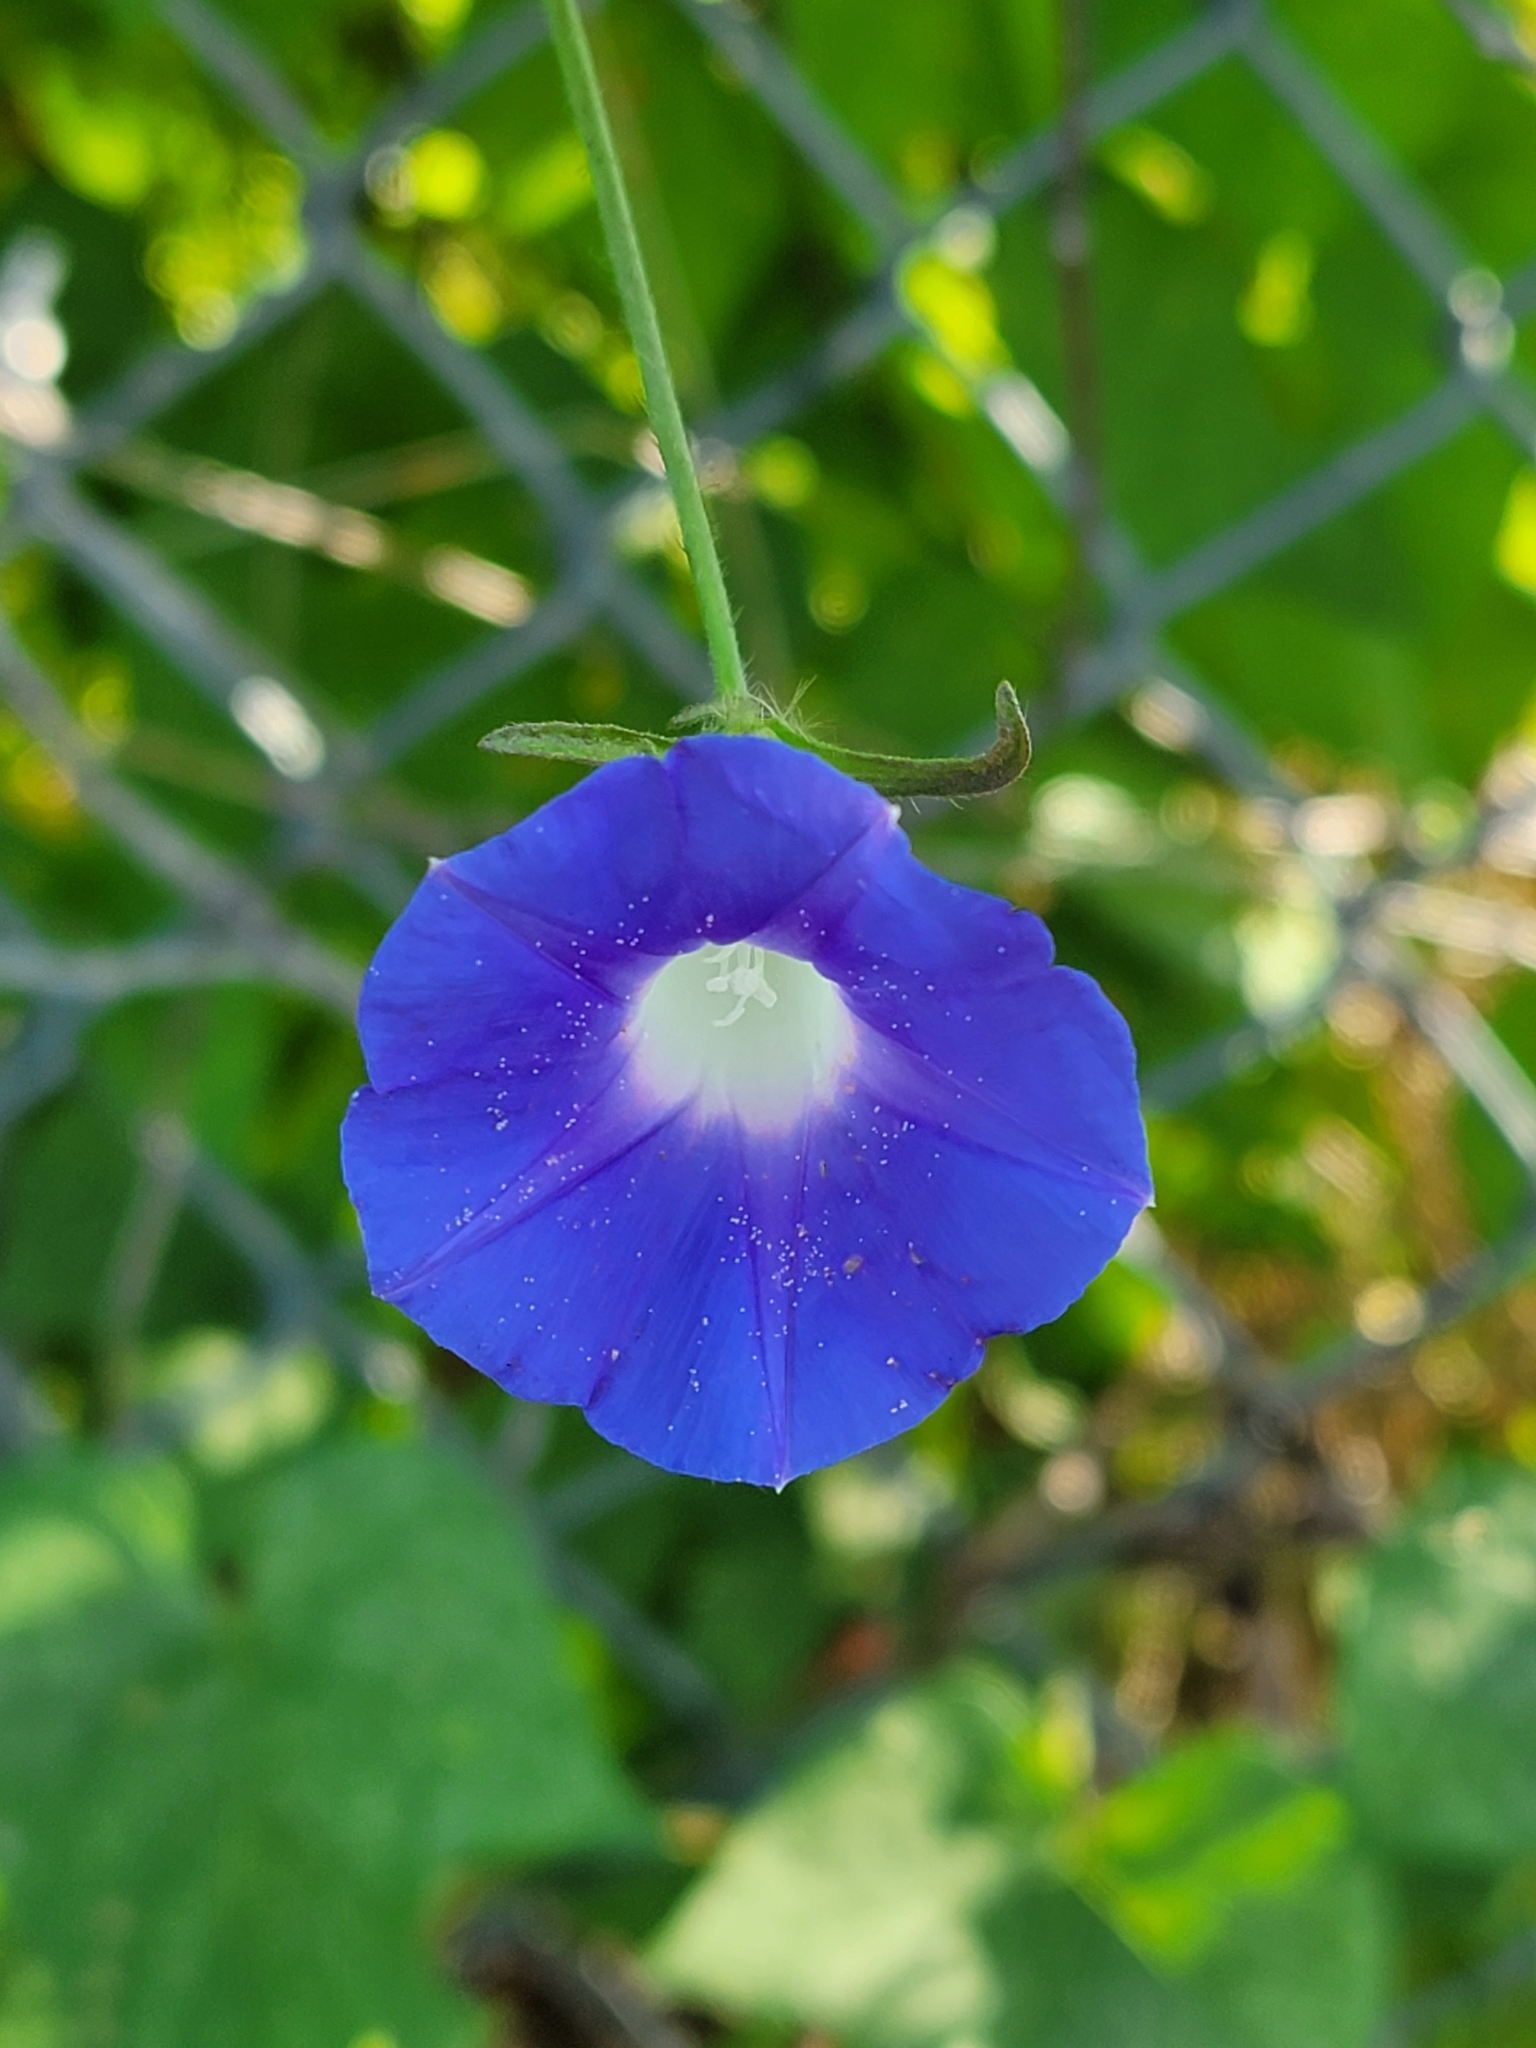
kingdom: Plantae
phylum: Tracheophyta
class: Magnoliopsida
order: Solanales
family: Convolvulaceae
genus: Ipomoea
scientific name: Ipomoea hederacea
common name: Ivy-leaved morning-glory
